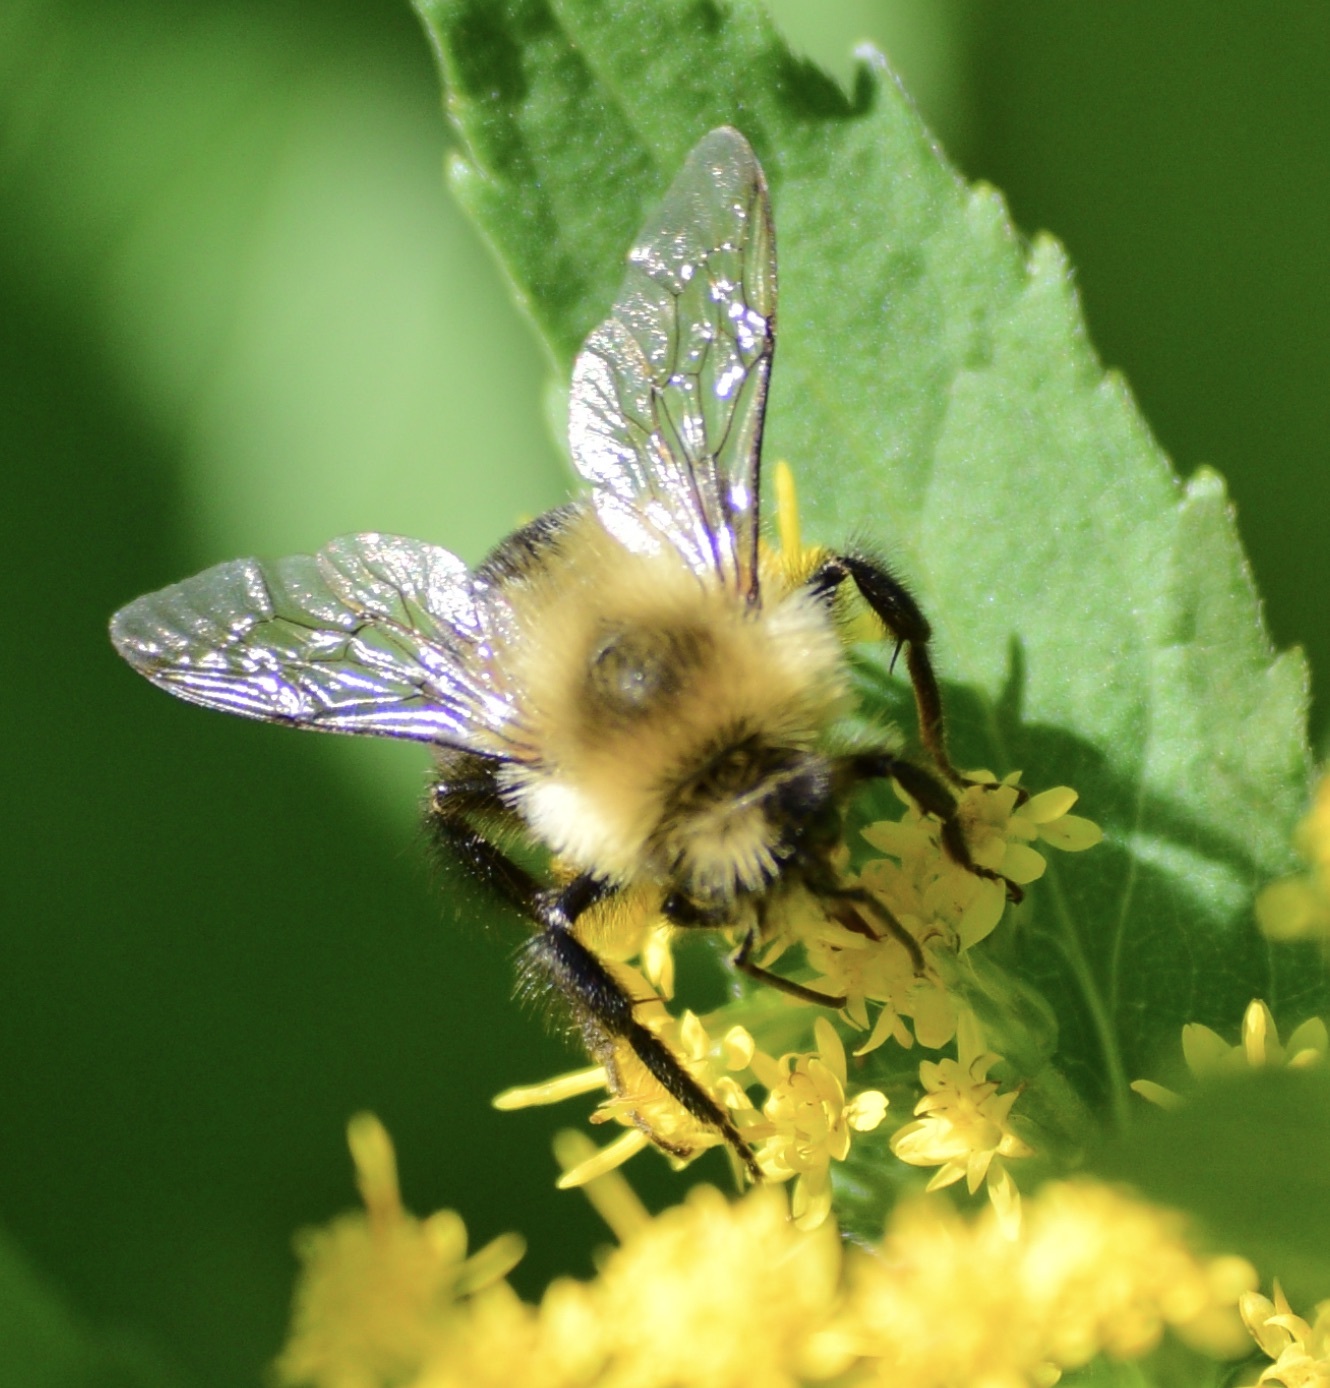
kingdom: Animalia
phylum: Arthropoda
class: Insecta
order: Hymenoptera
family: Apidae
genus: Bombus
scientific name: Bombus impatiens
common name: Common eastern bumble bee
